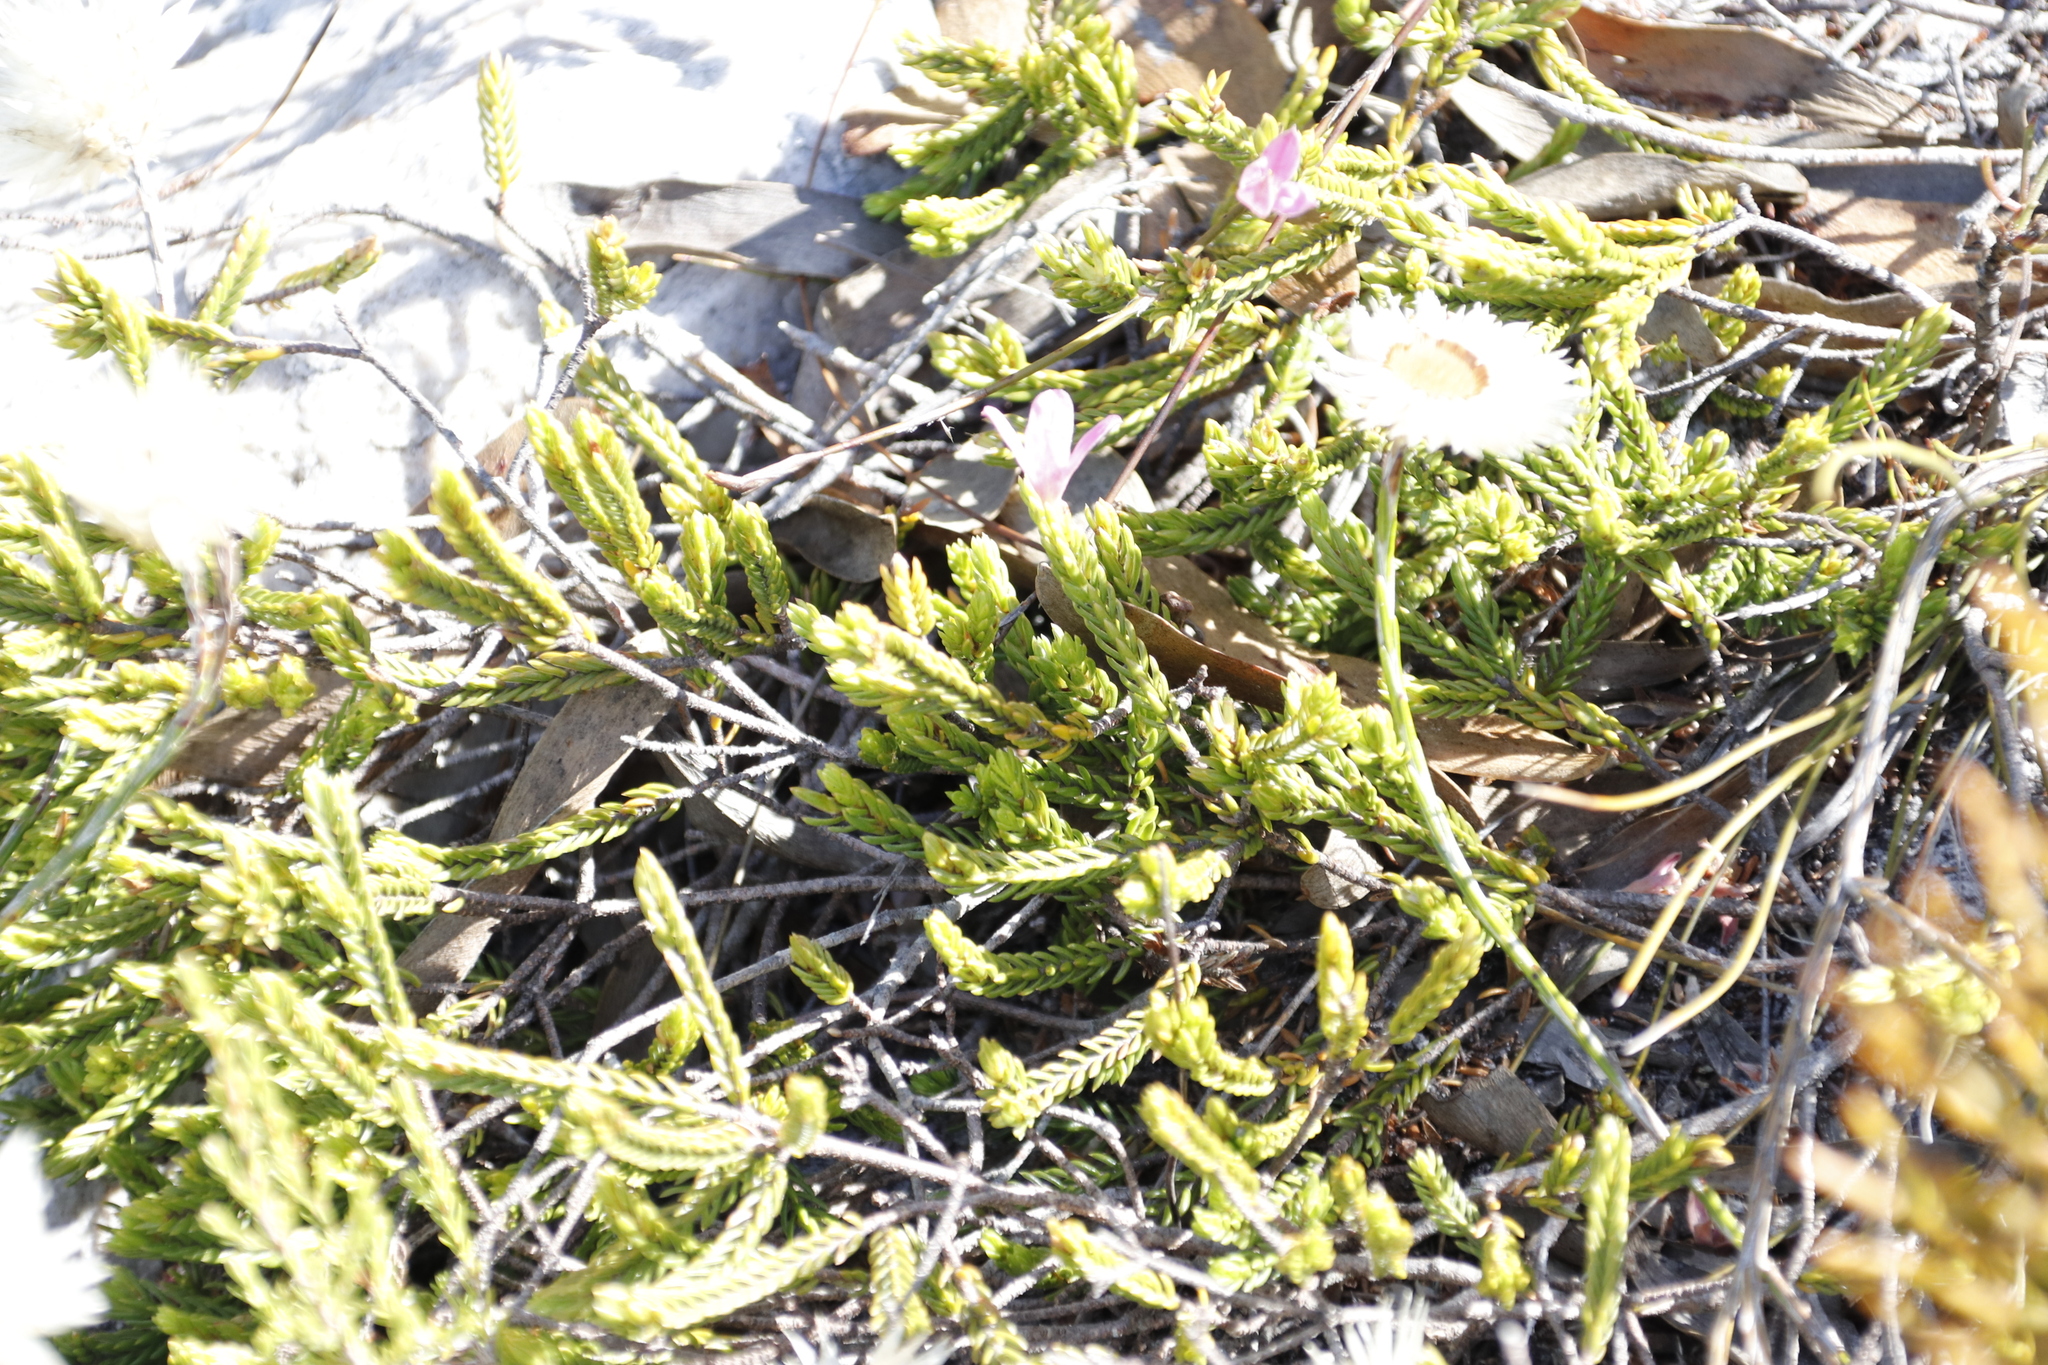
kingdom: Plantae
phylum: Tracheophyta
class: Magnoliopsida
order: Malvales
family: Thymelaeaceae
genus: Lachnaea
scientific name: Lachnaea grandiflora
